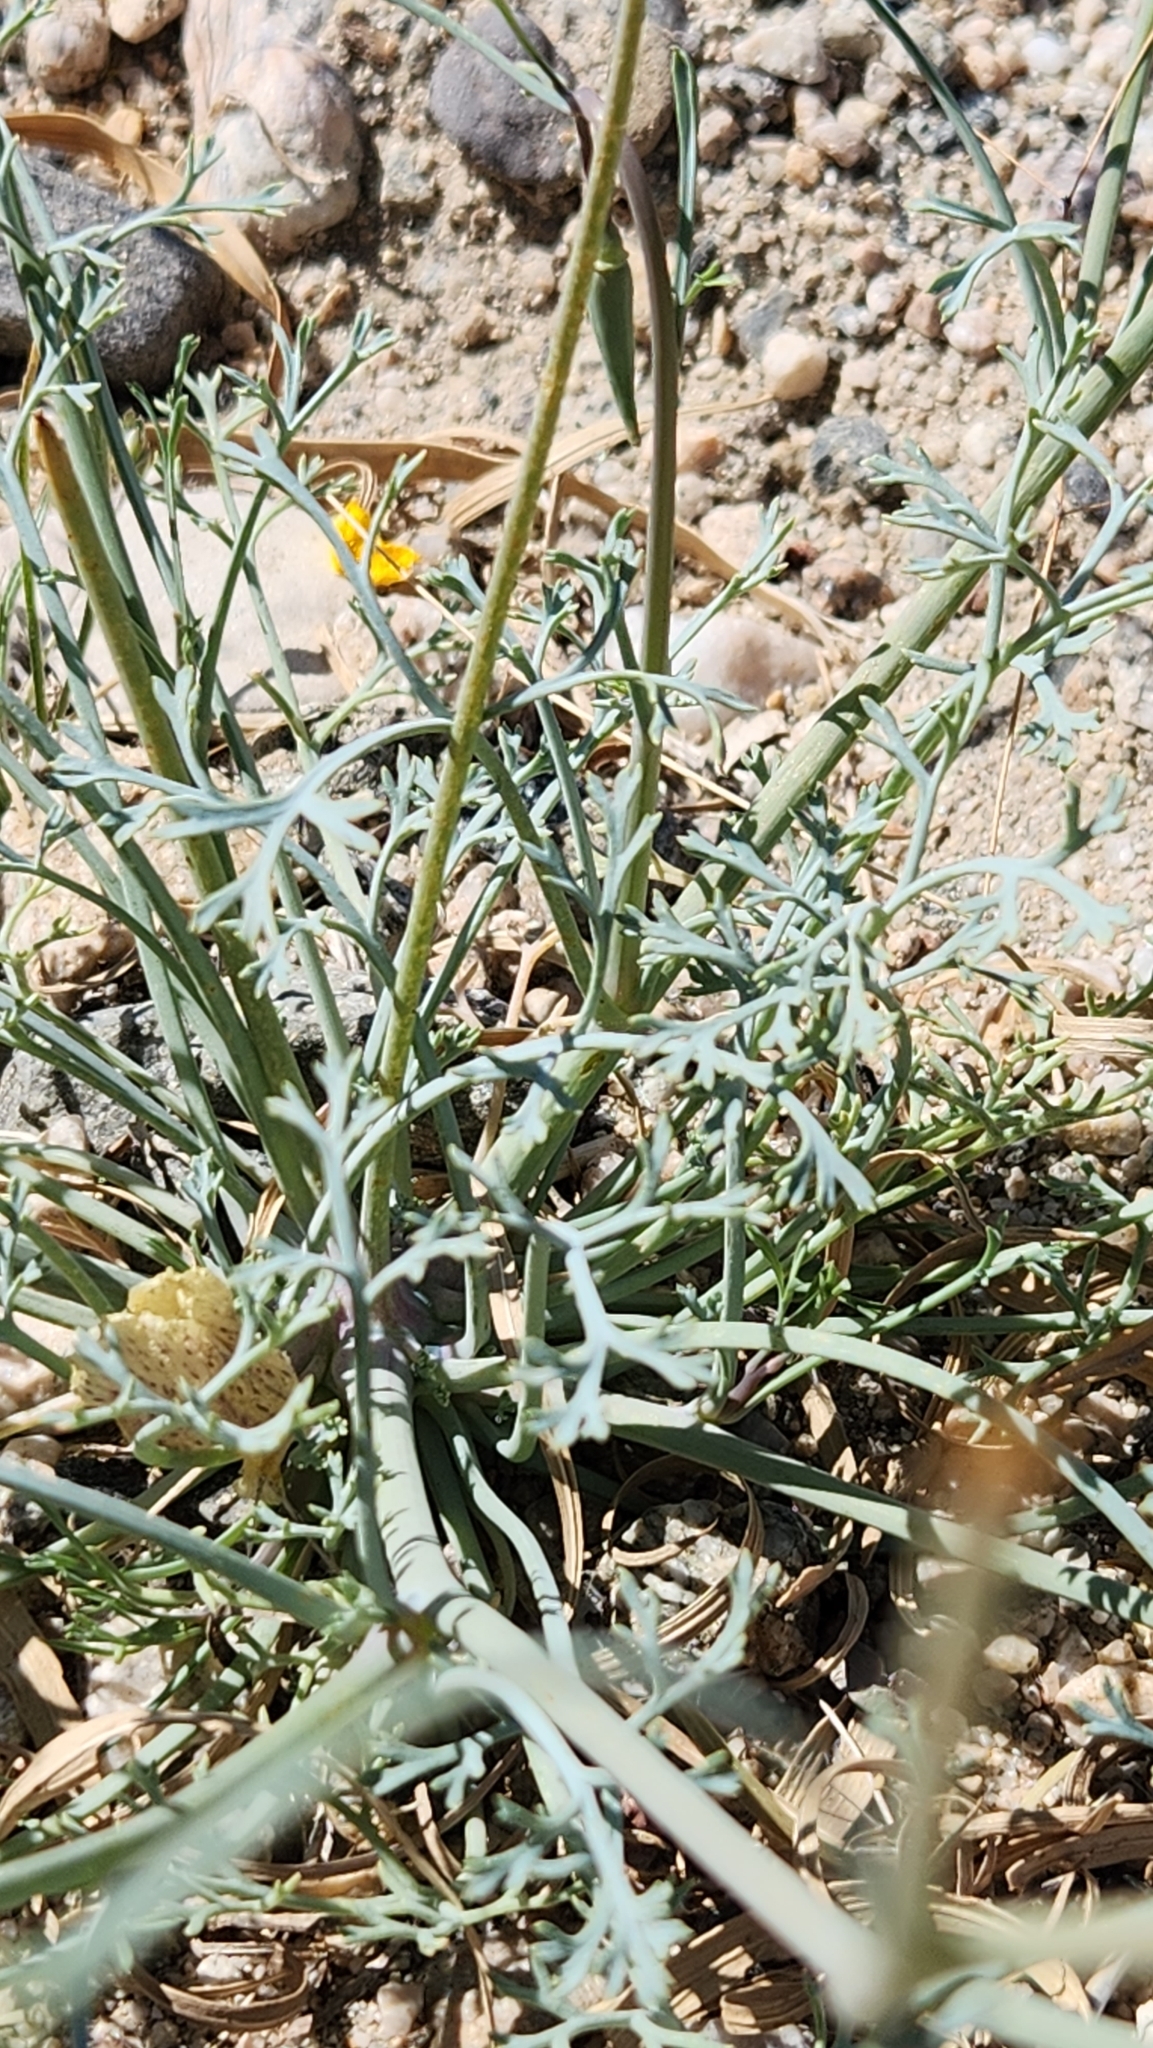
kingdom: Plantae
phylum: Tracheophyta
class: Magnoliopsida
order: Ranunculales
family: Papaveraceae
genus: Eschscholzia
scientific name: Eschscholzia papastillii
